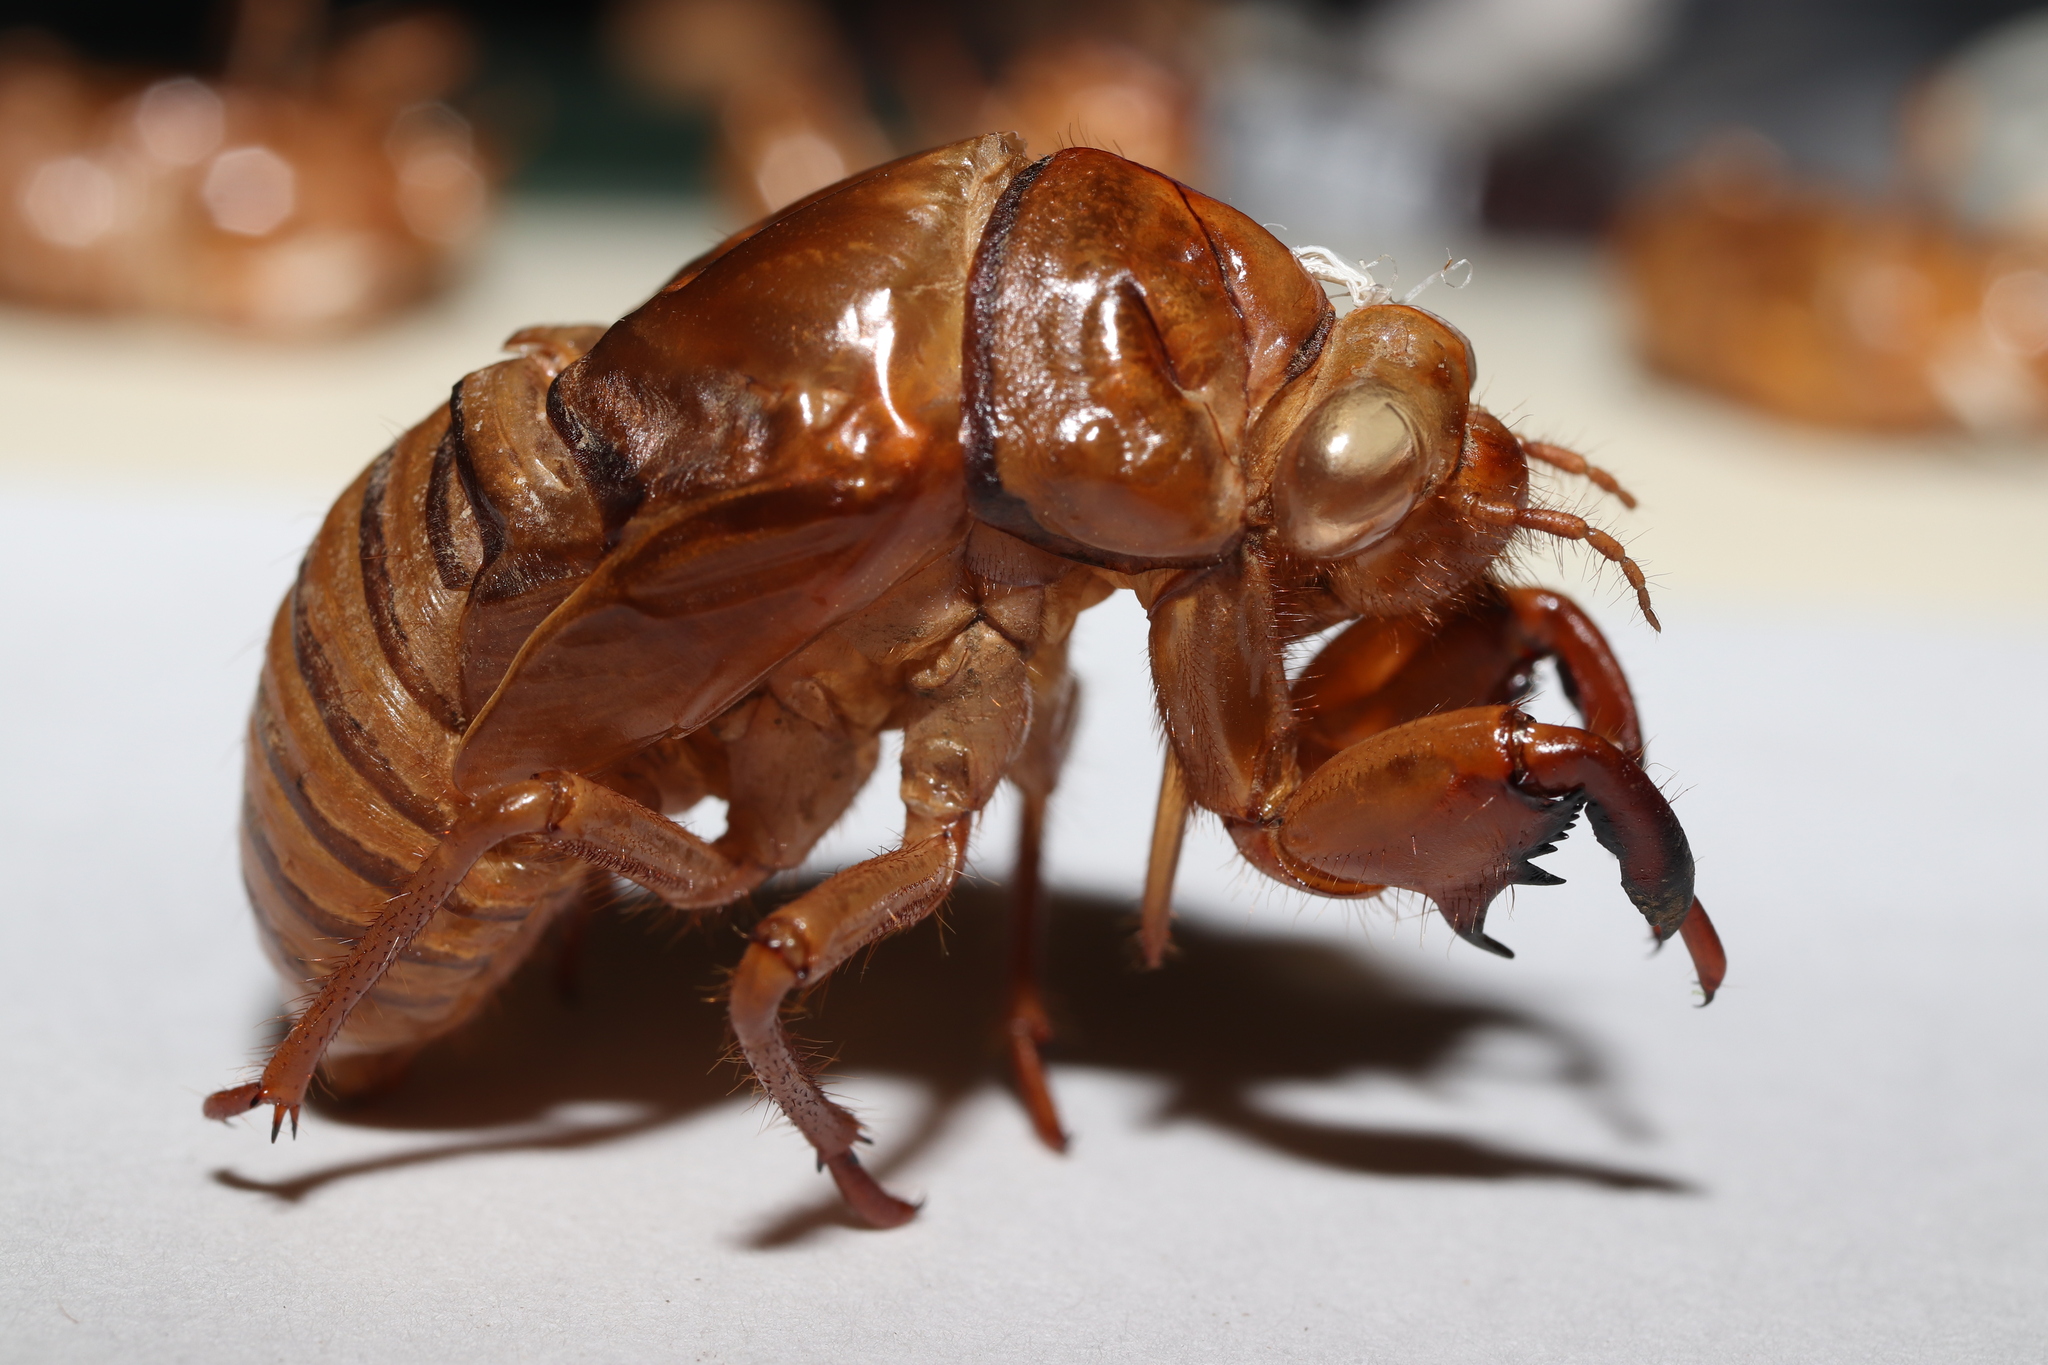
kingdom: Animalia
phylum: Arthropoda
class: Insecta
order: Hemiptera
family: Cicadidae
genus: Graptopsaltria
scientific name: Graptopsaltria nigrofuscata
